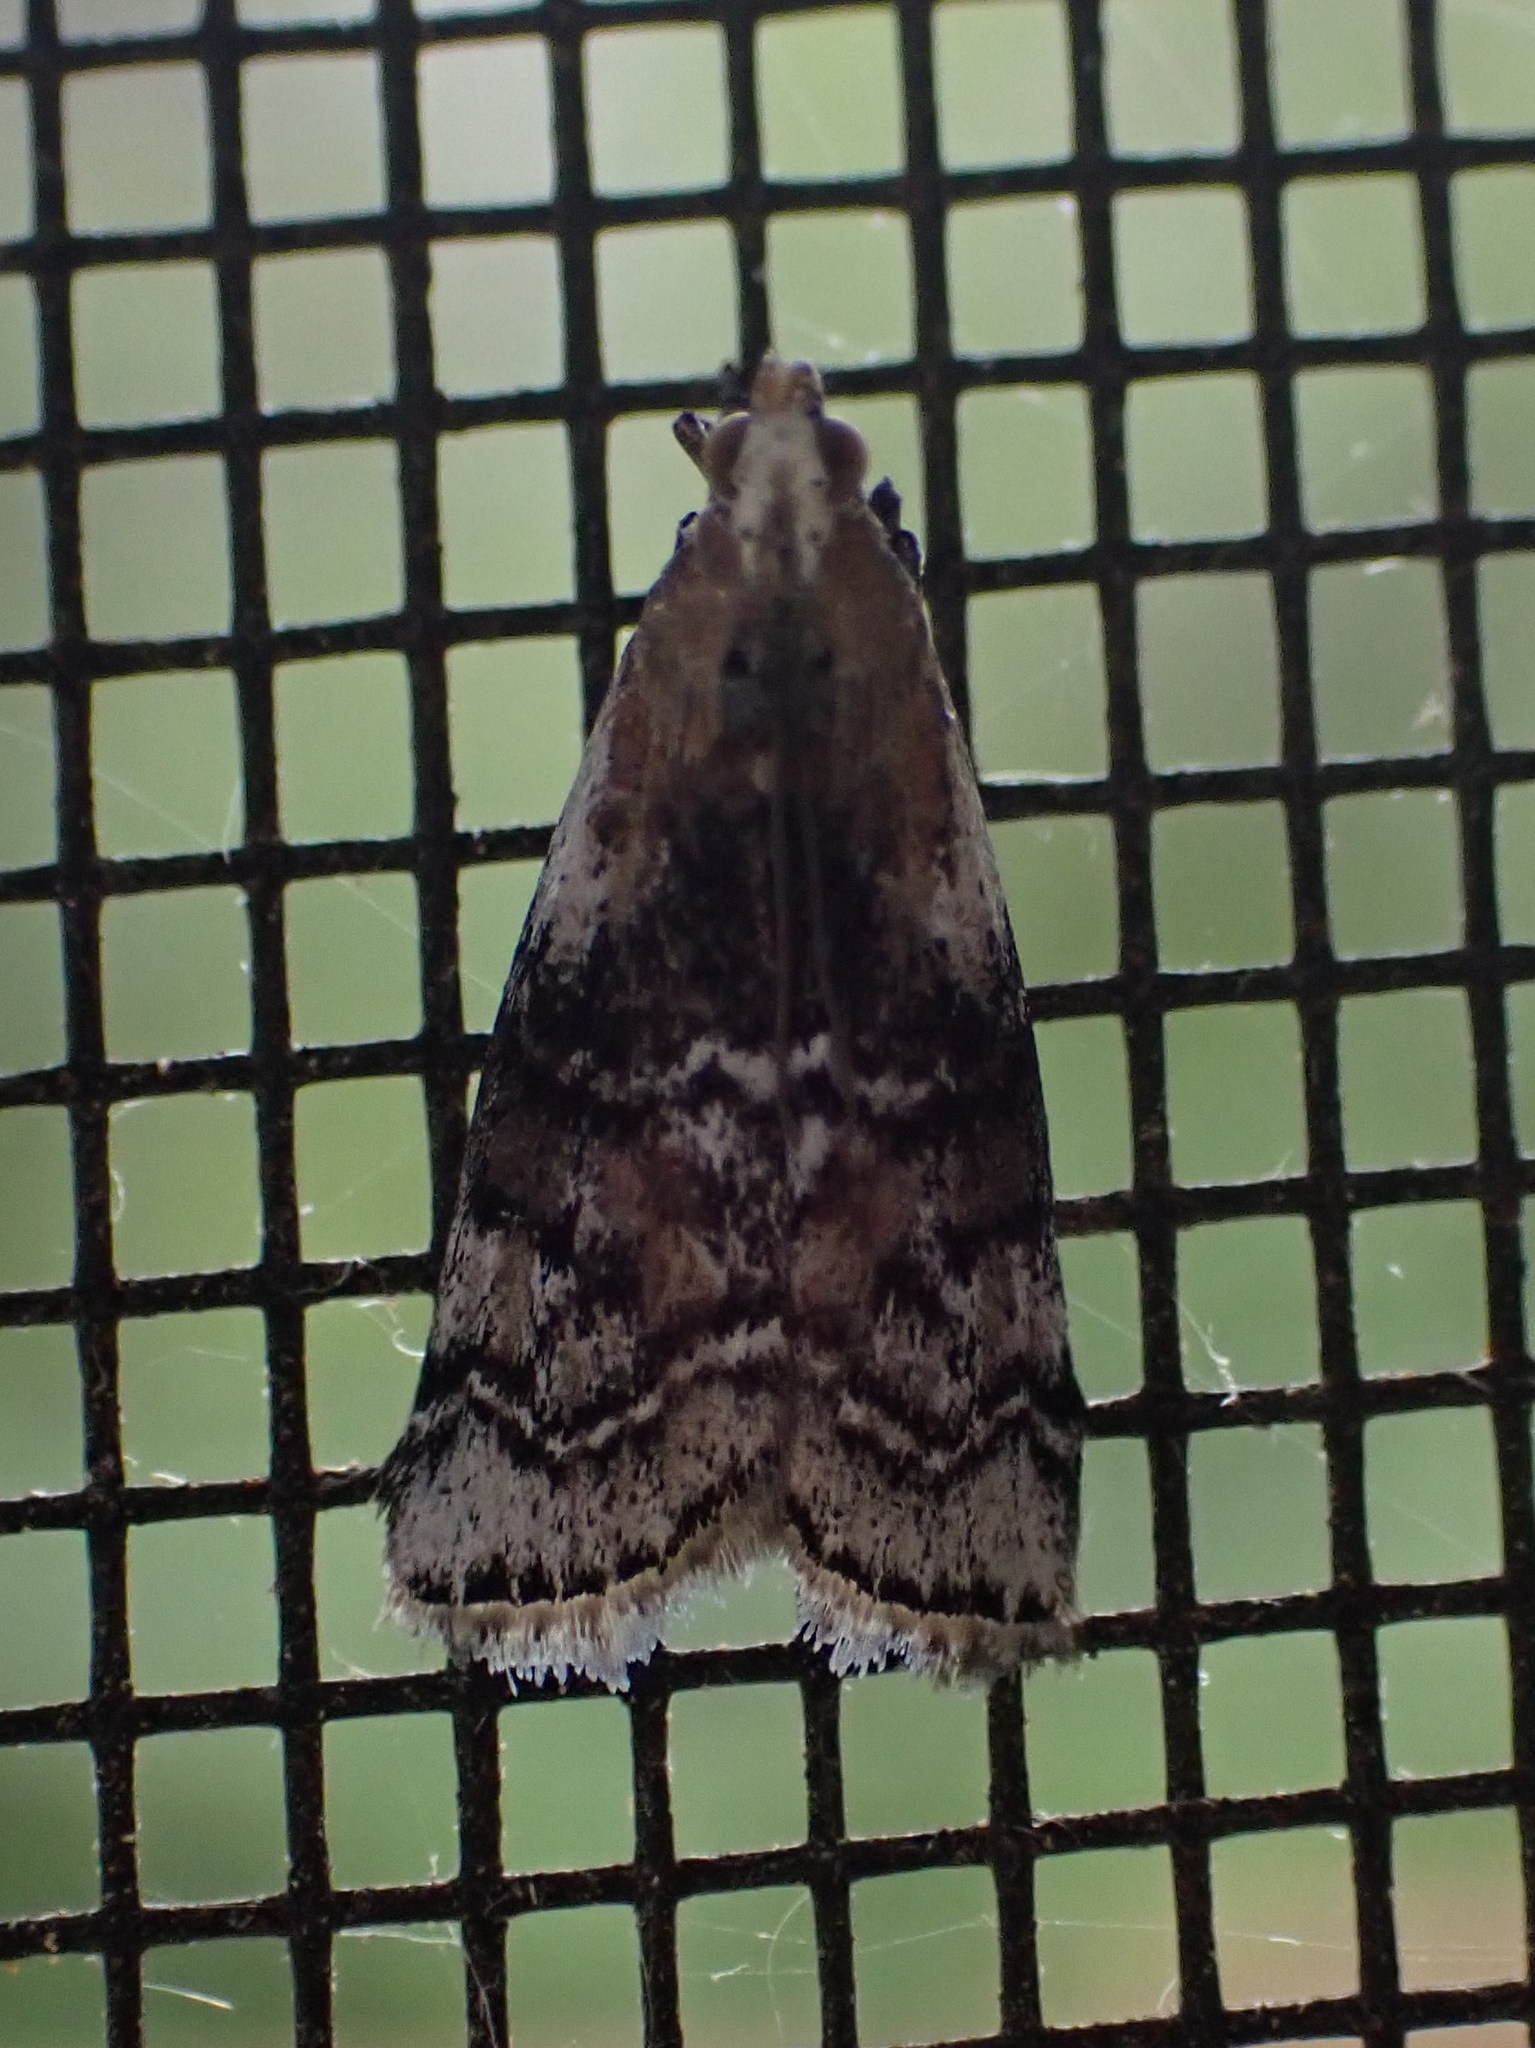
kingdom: Animalia
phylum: Arthropoda
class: Insecta
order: Lepidoptera
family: Pyralidae
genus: Glyptocera
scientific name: Glyptocera consobrinella
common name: Viburnum glyptocera moth
